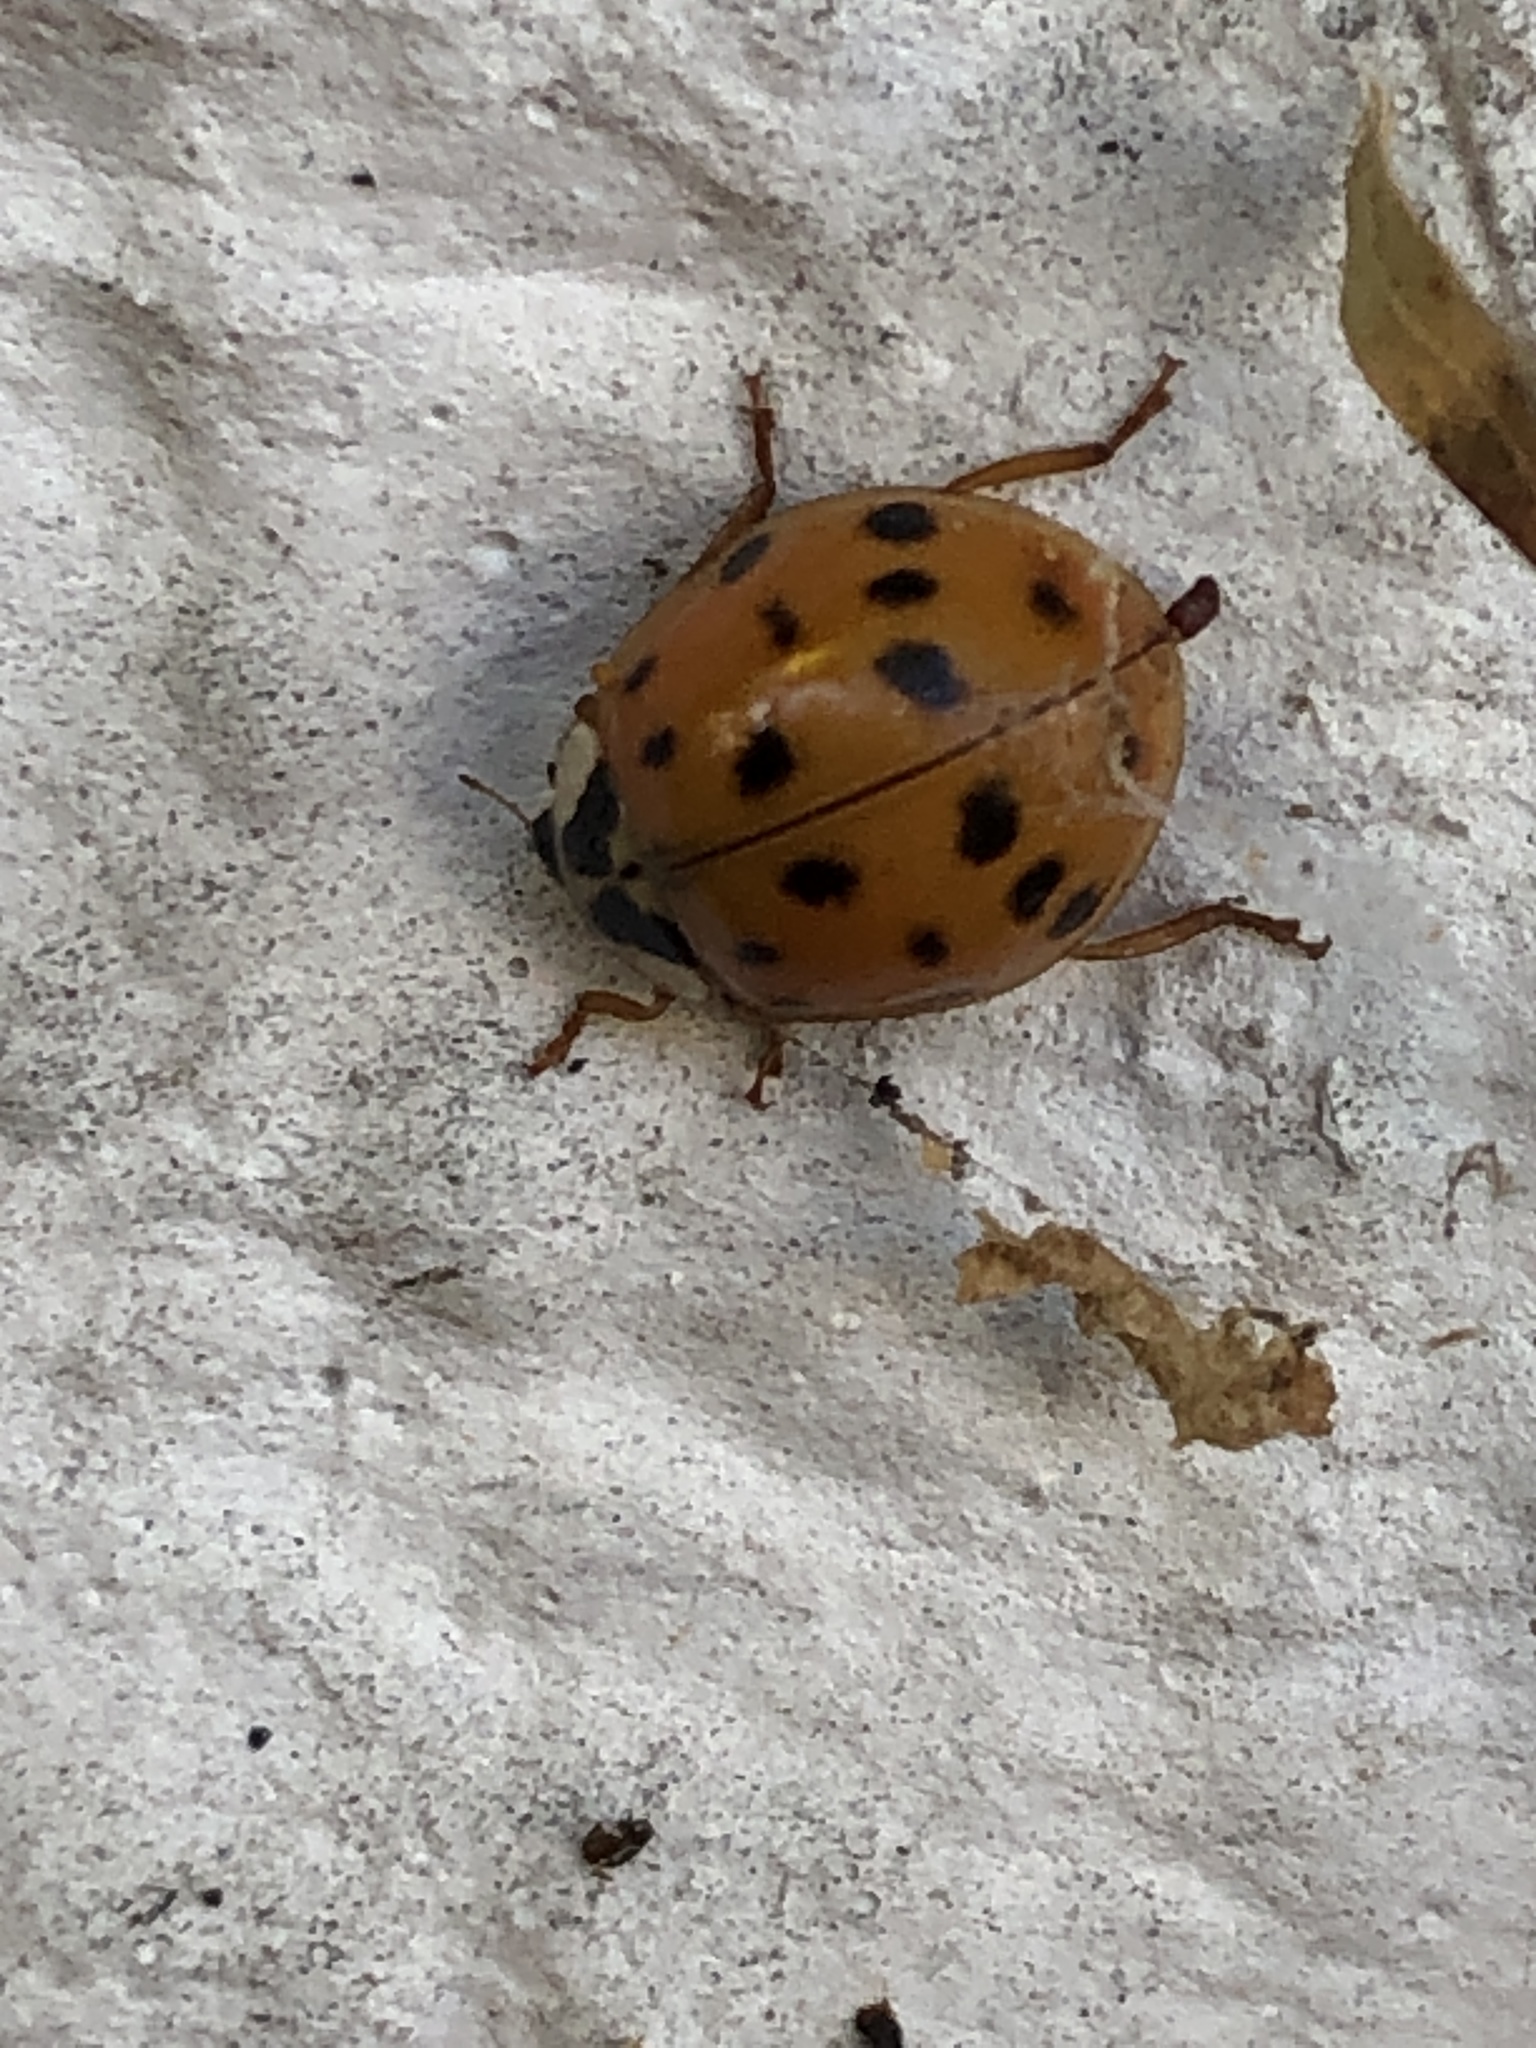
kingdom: Animalia
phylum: Arthropoda
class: Insecta
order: Coleoptera
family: Coccinellidae
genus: Harmonia
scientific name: Harmonia axyridis
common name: Harlequin ladybird
